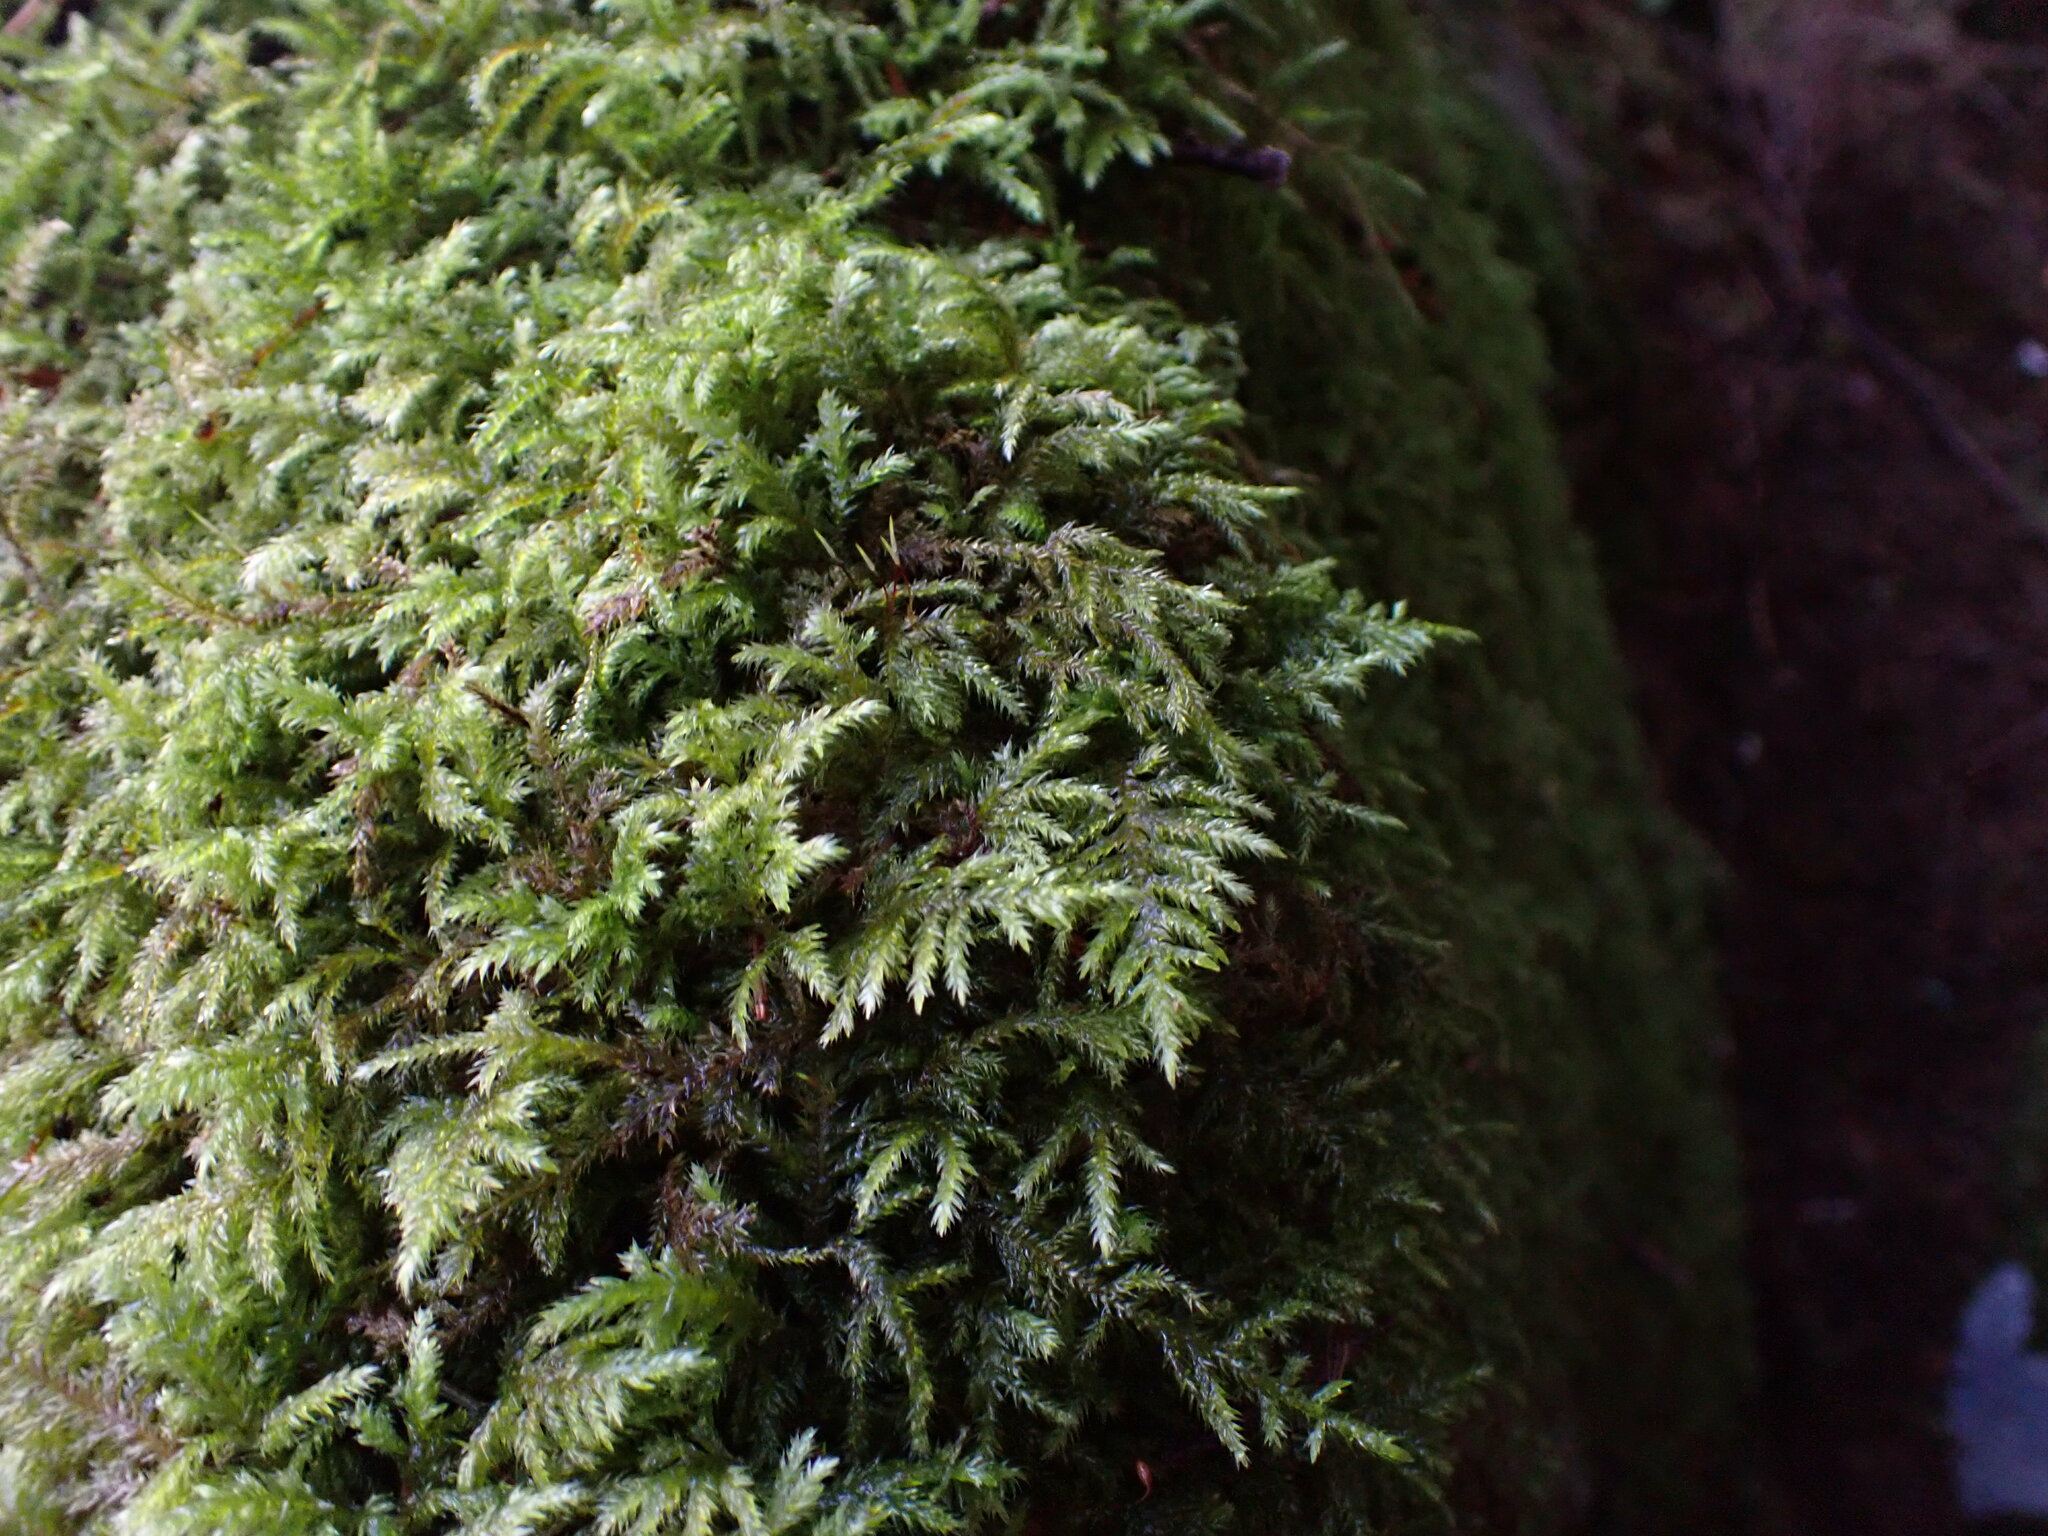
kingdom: Plantae
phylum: Bryophyta
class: Bryopsida
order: Hypnales
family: Lembophyllaceae
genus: Pseudisothecium
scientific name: Pseudisothecium stoloniferum
